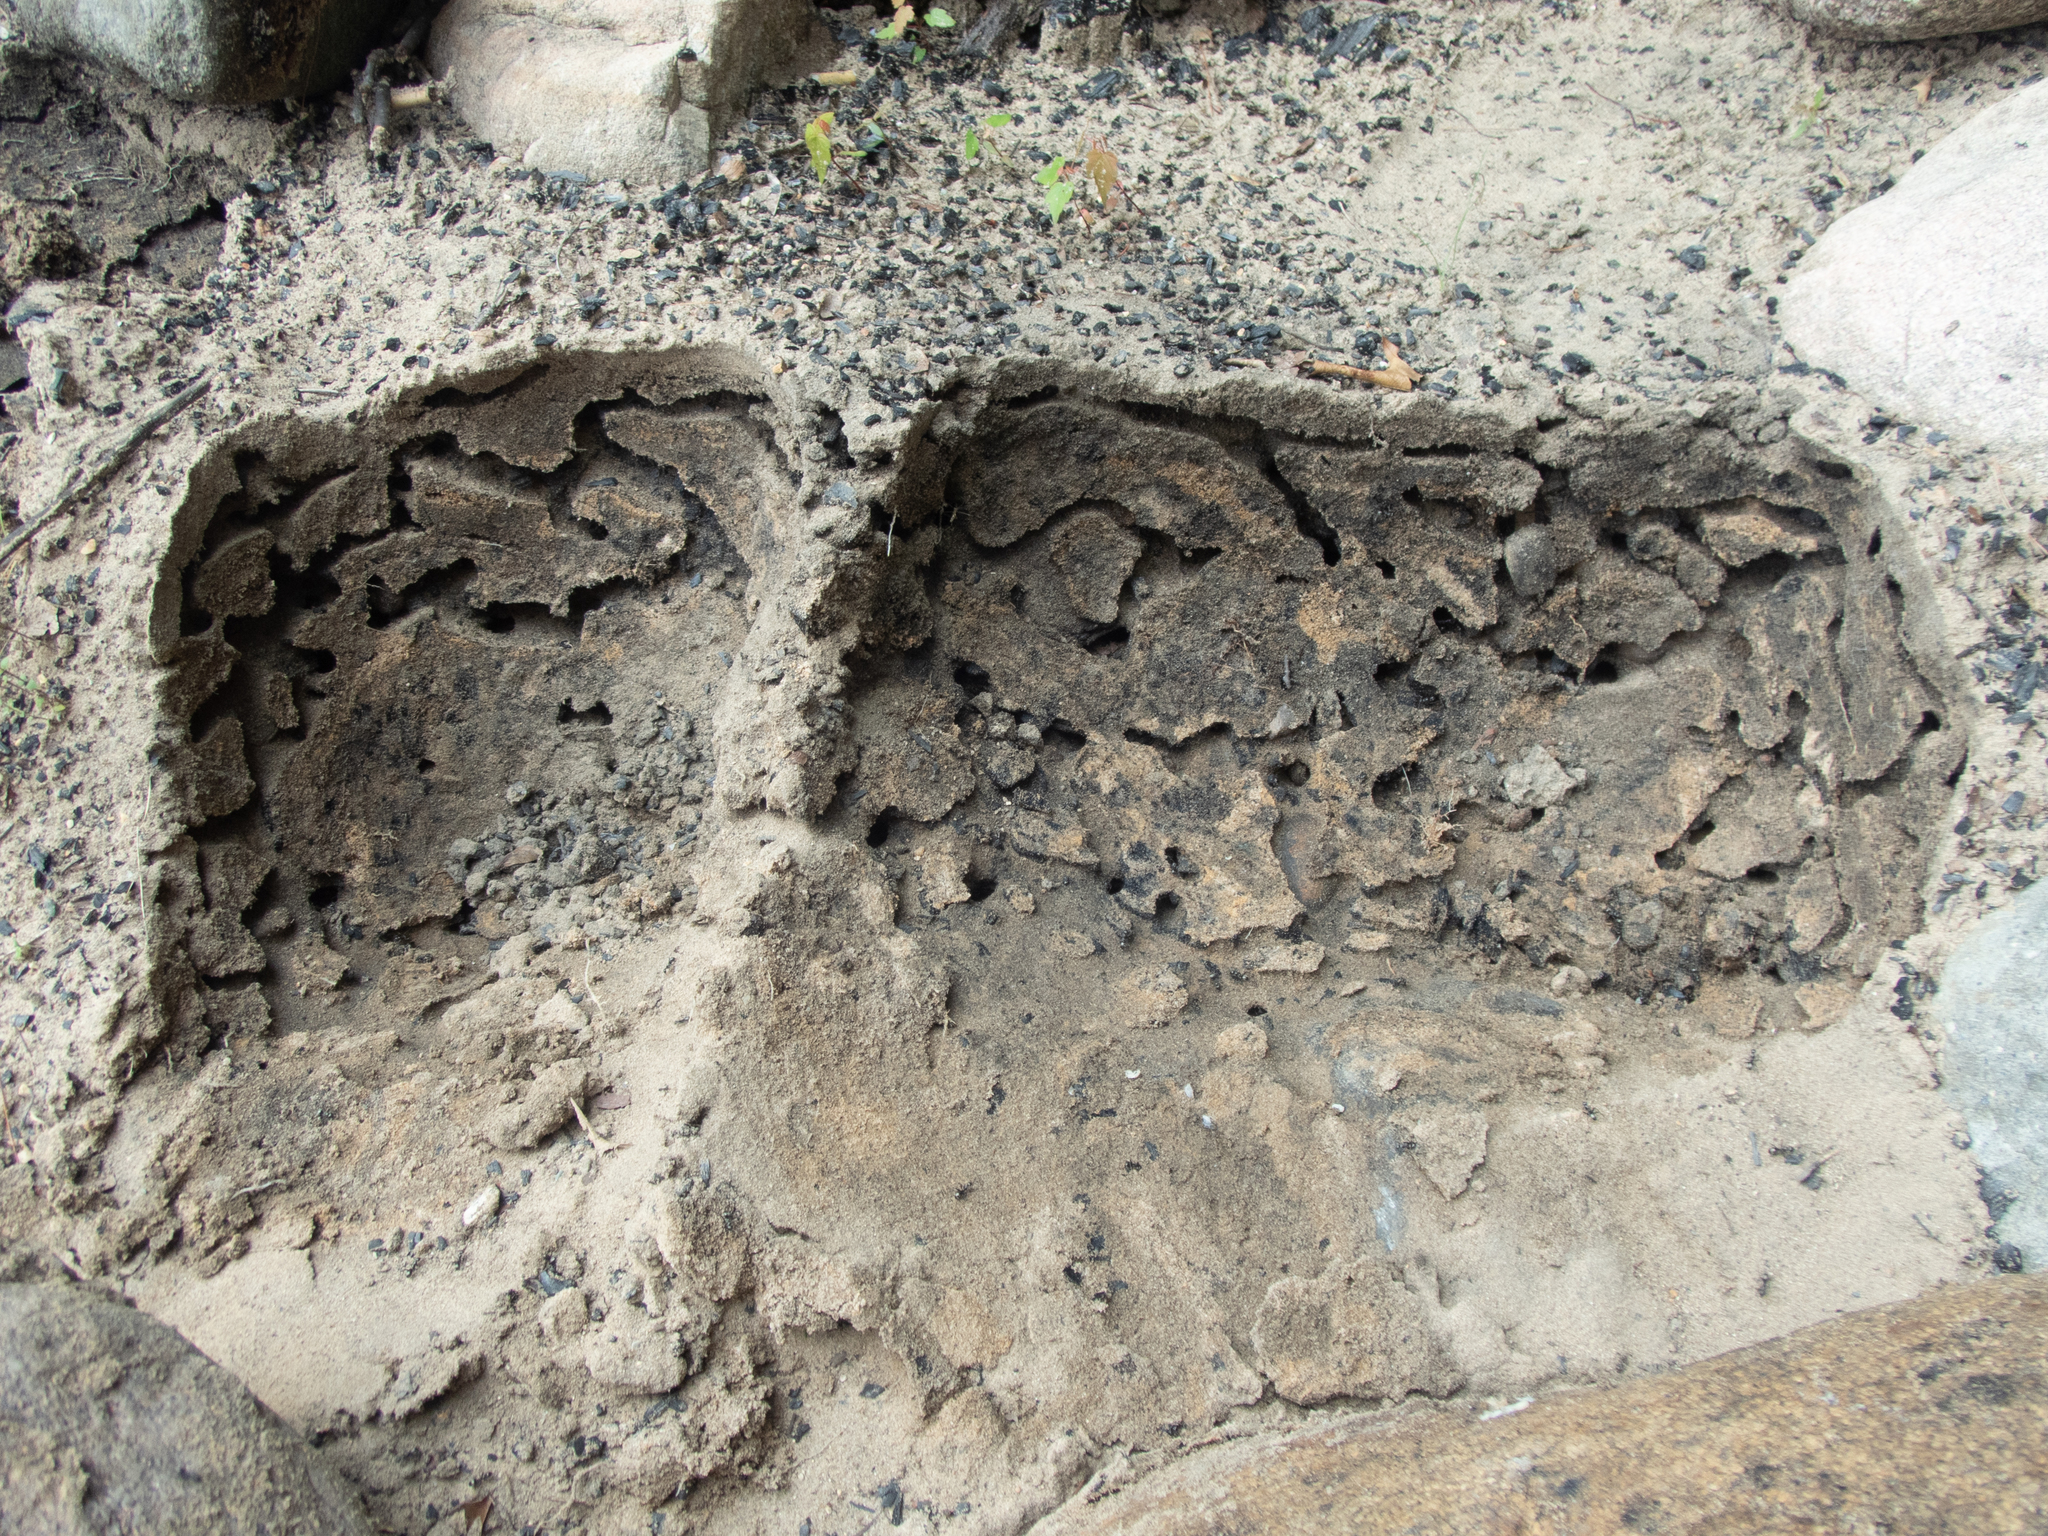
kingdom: Animalia
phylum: Arthropoda
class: Insecta
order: Hymenoptera
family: Formicidae
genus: Formica
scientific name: Formica subsericea
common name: Silky field ant
